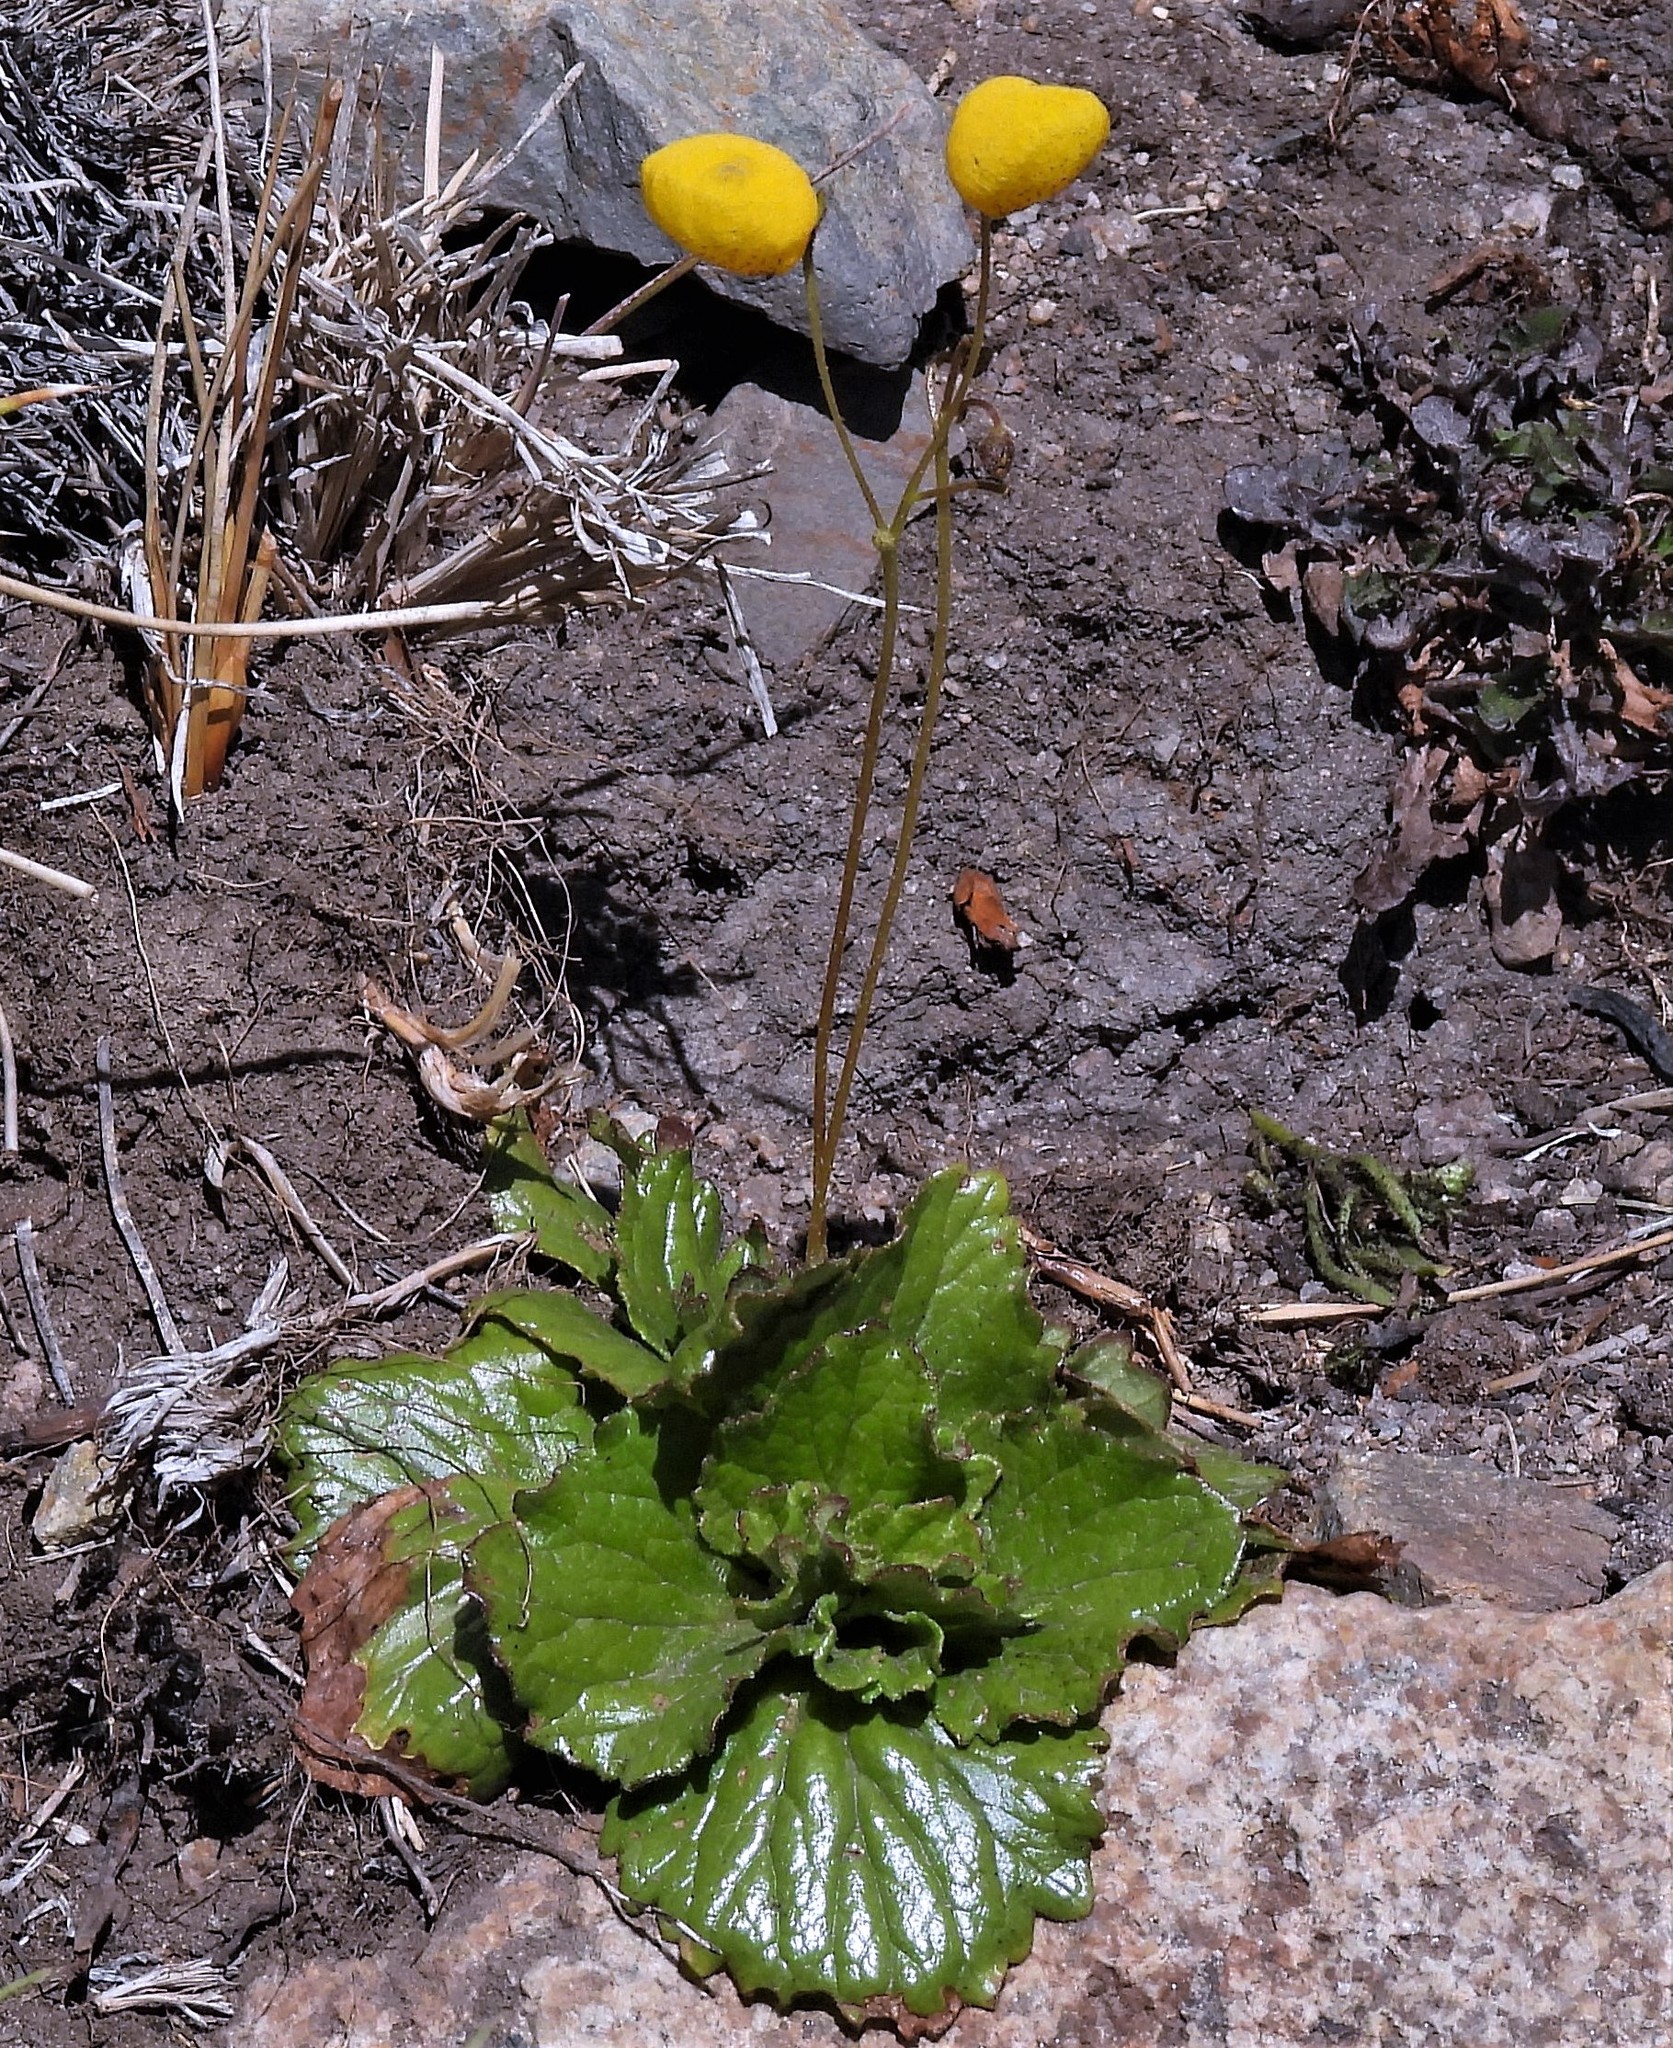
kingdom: Plantae
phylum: Tracheophyta
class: Magnoliopsida
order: Lamiales
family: Calceolariaceae
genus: Calceolaria
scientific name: Calceolaria filicaulis
